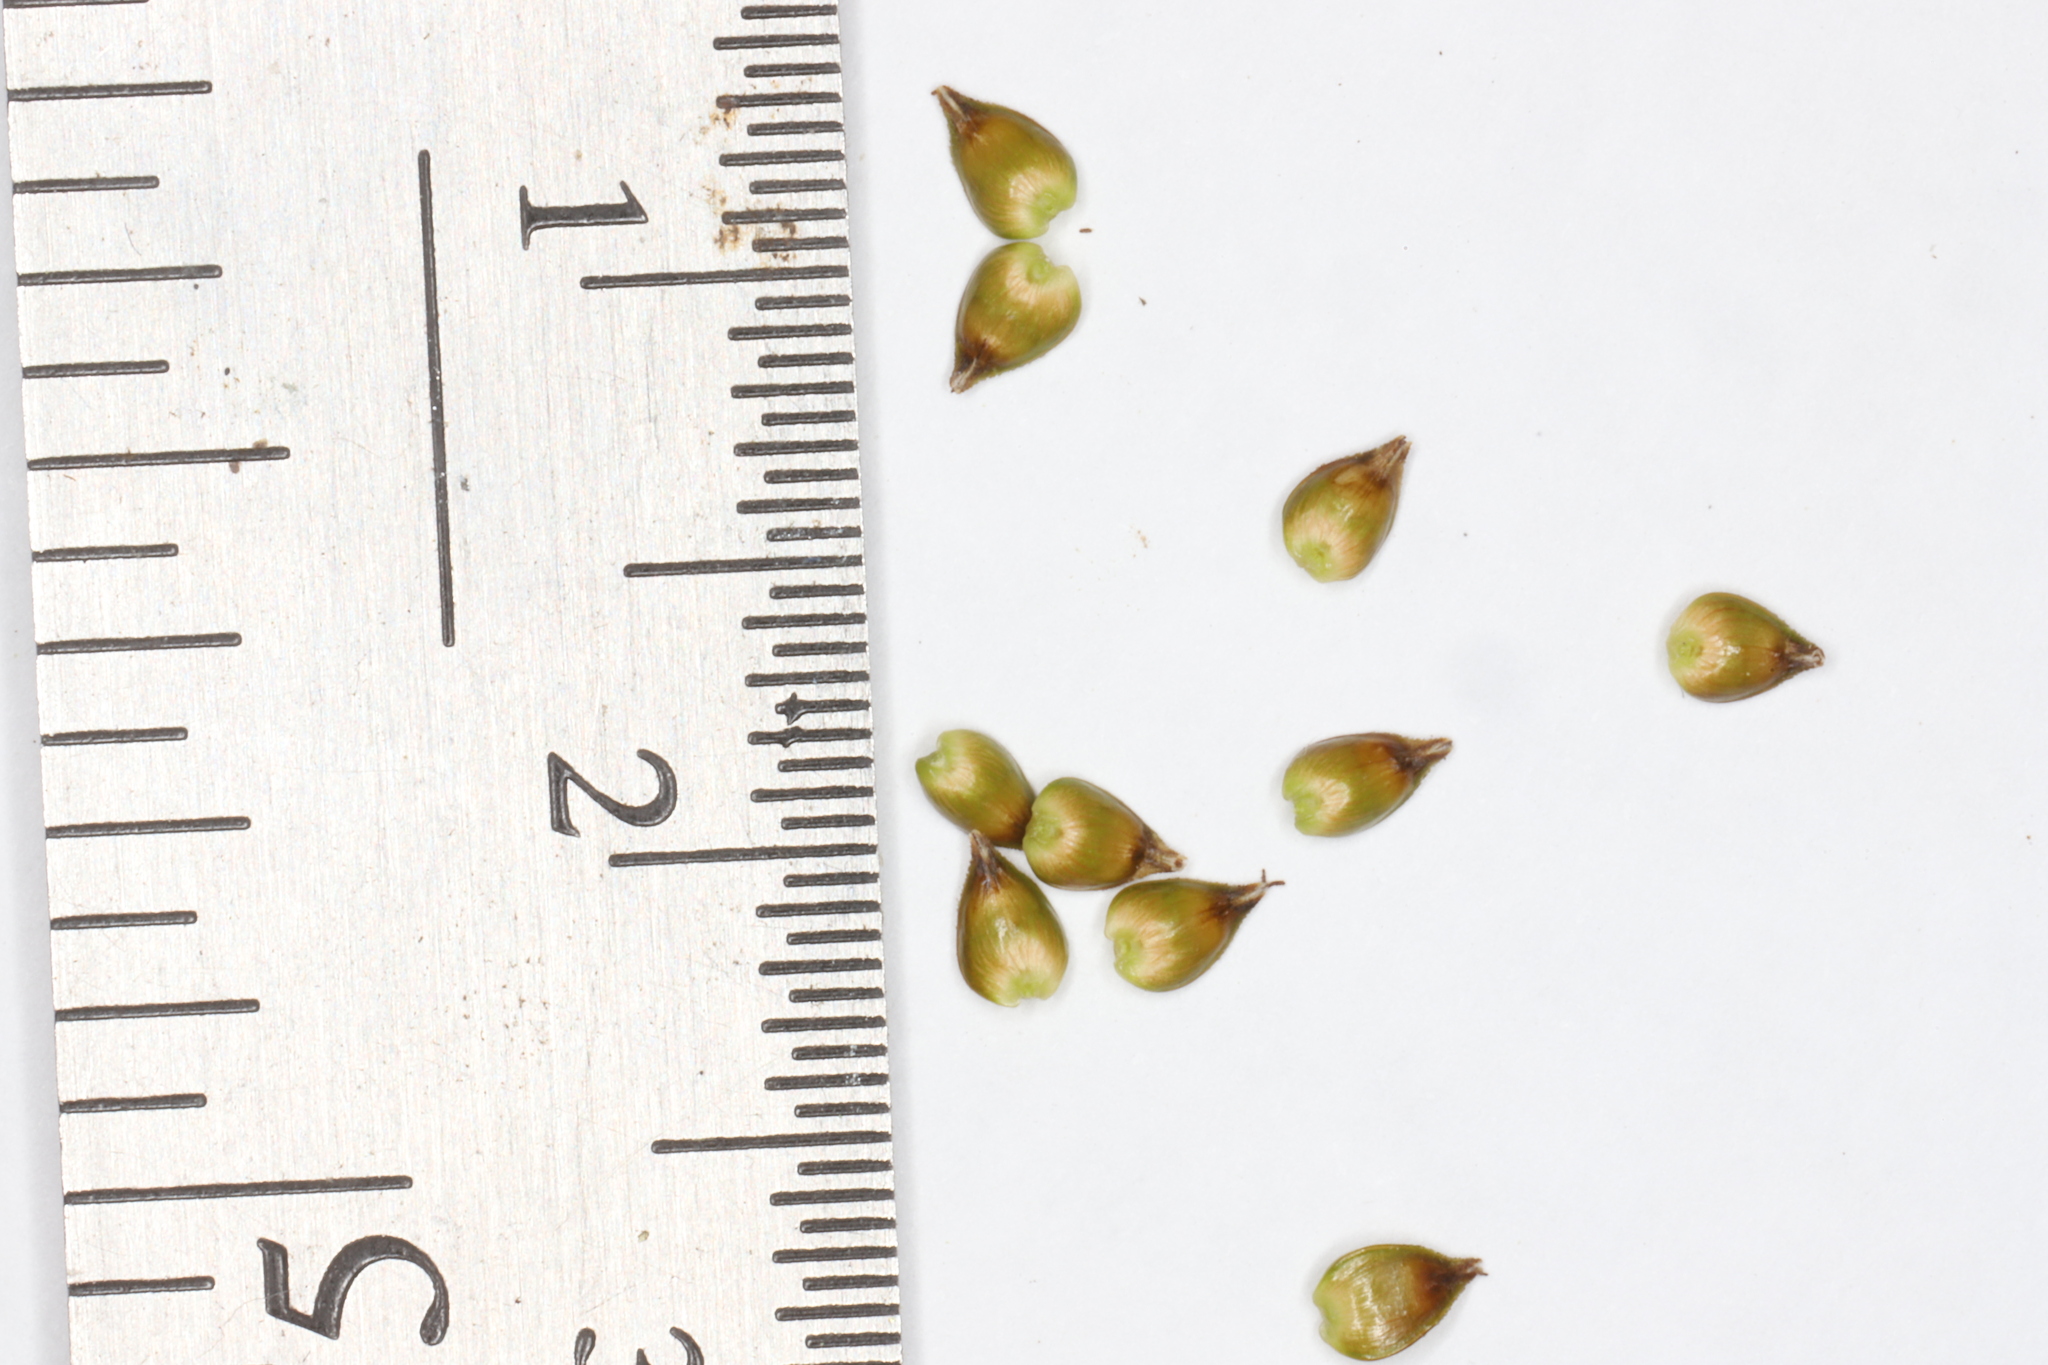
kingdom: Plantae
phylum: Tracheophyta
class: Liliopsida
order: Poales
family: Cyperaceae
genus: Carex
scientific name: Carex interior
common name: Inland sedge
